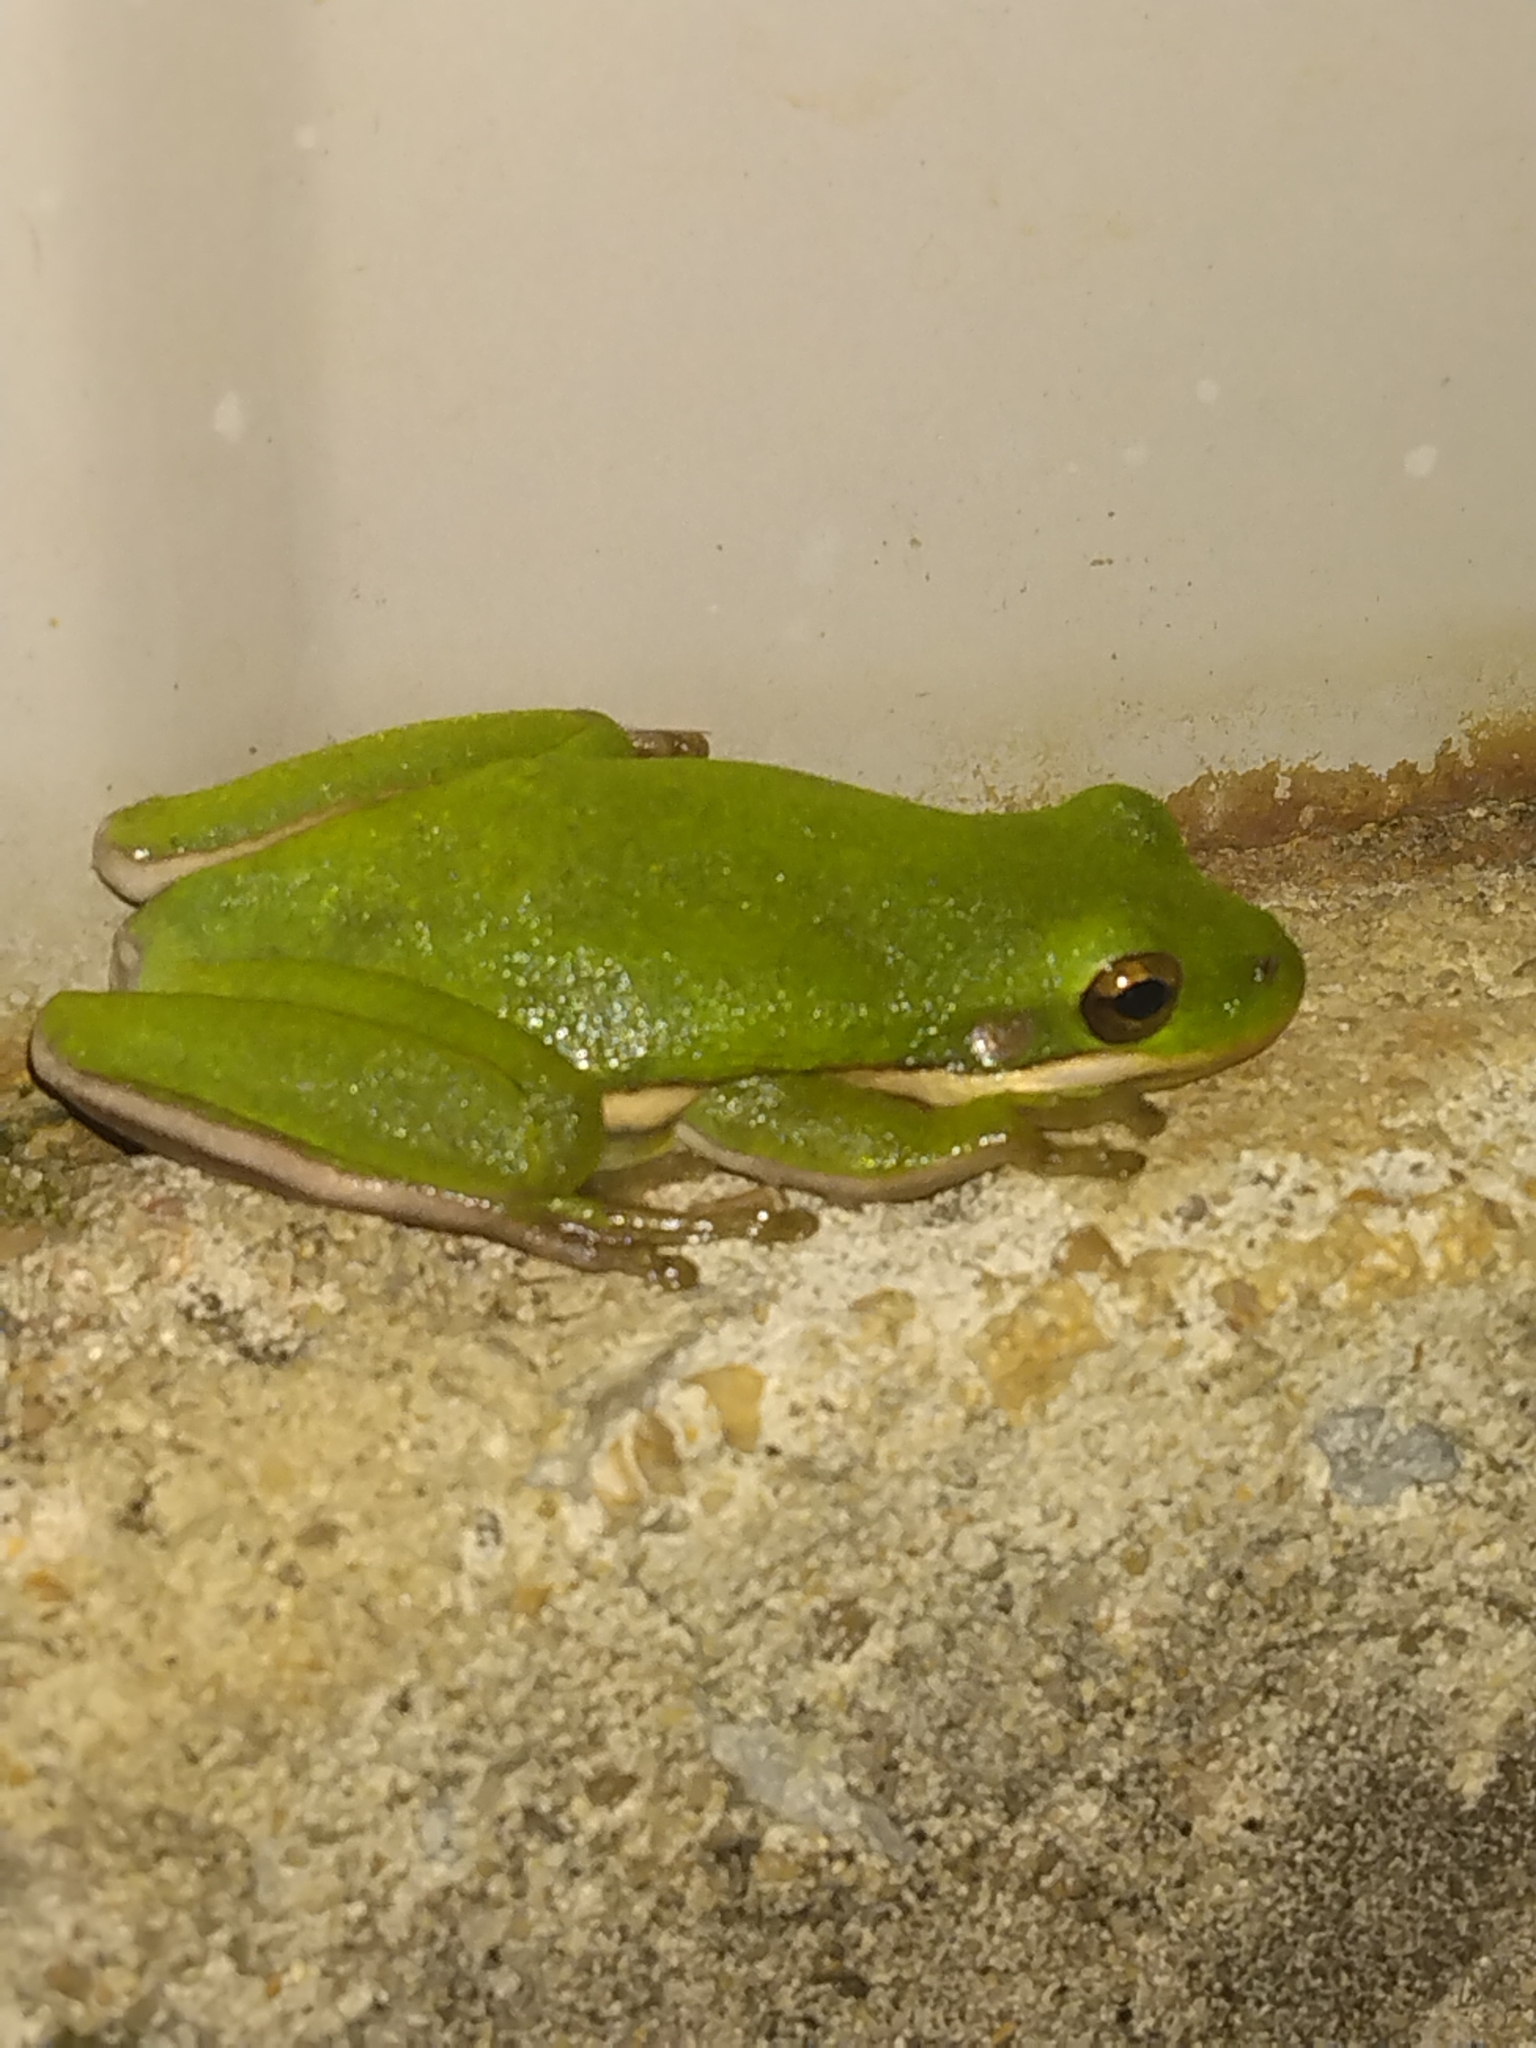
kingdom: Animalia
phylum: Chordata
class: Amphibia
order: Anura
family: Hylidae
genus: Dryophytes
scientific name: Dryophytes cinereus
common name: Green treefrog
